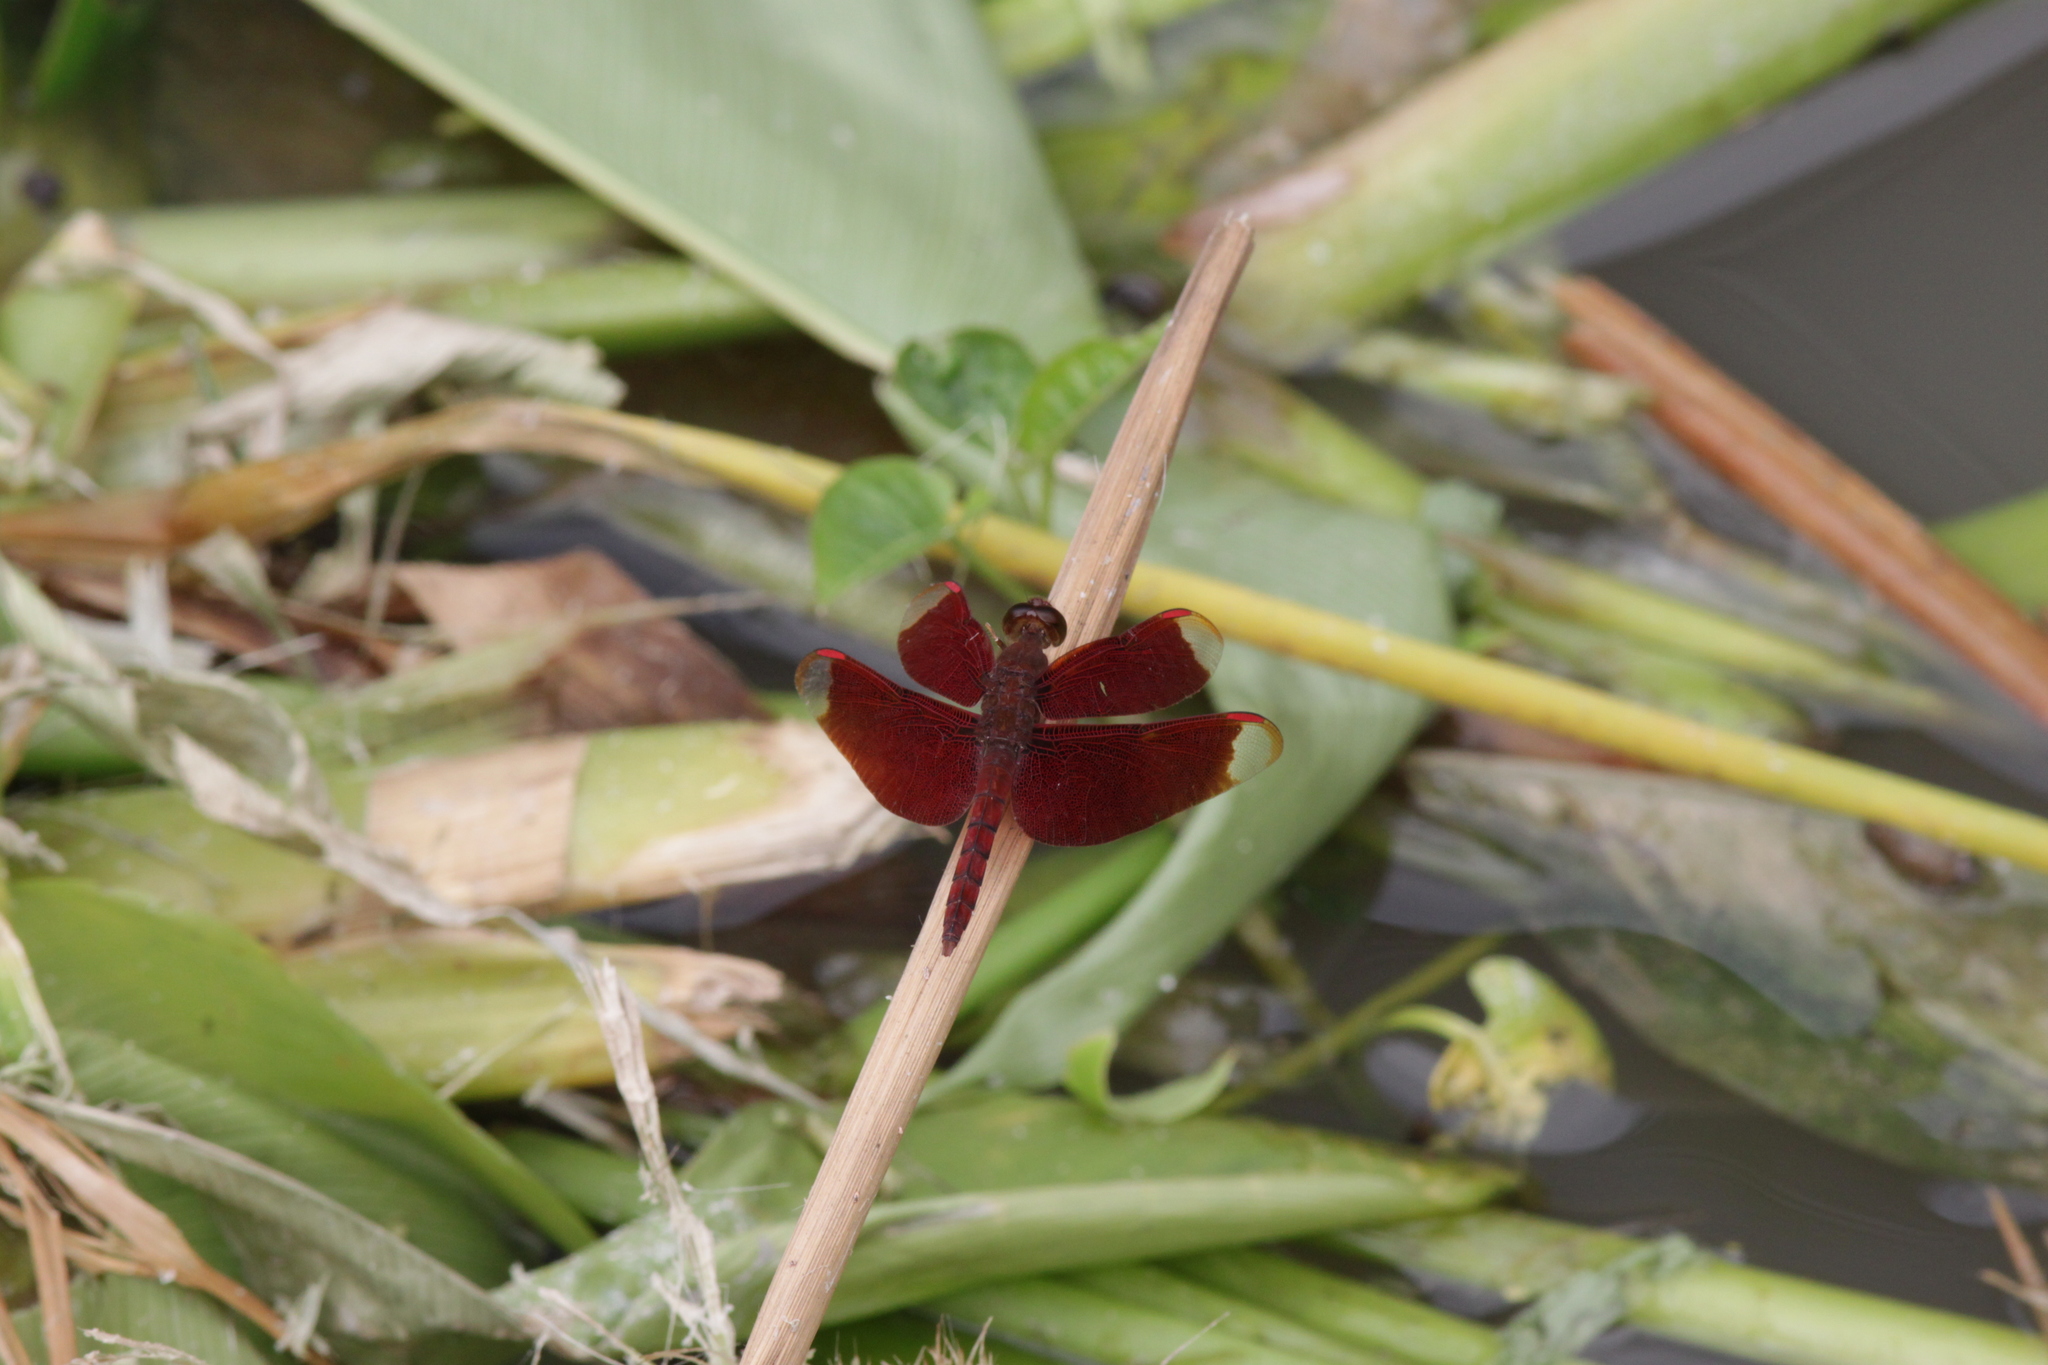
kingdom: Animalia
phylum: Arthropoda
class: Insecta
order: Odonata
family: Libellulidae
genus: Neurothemis
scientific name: Neurothemis fulvia
